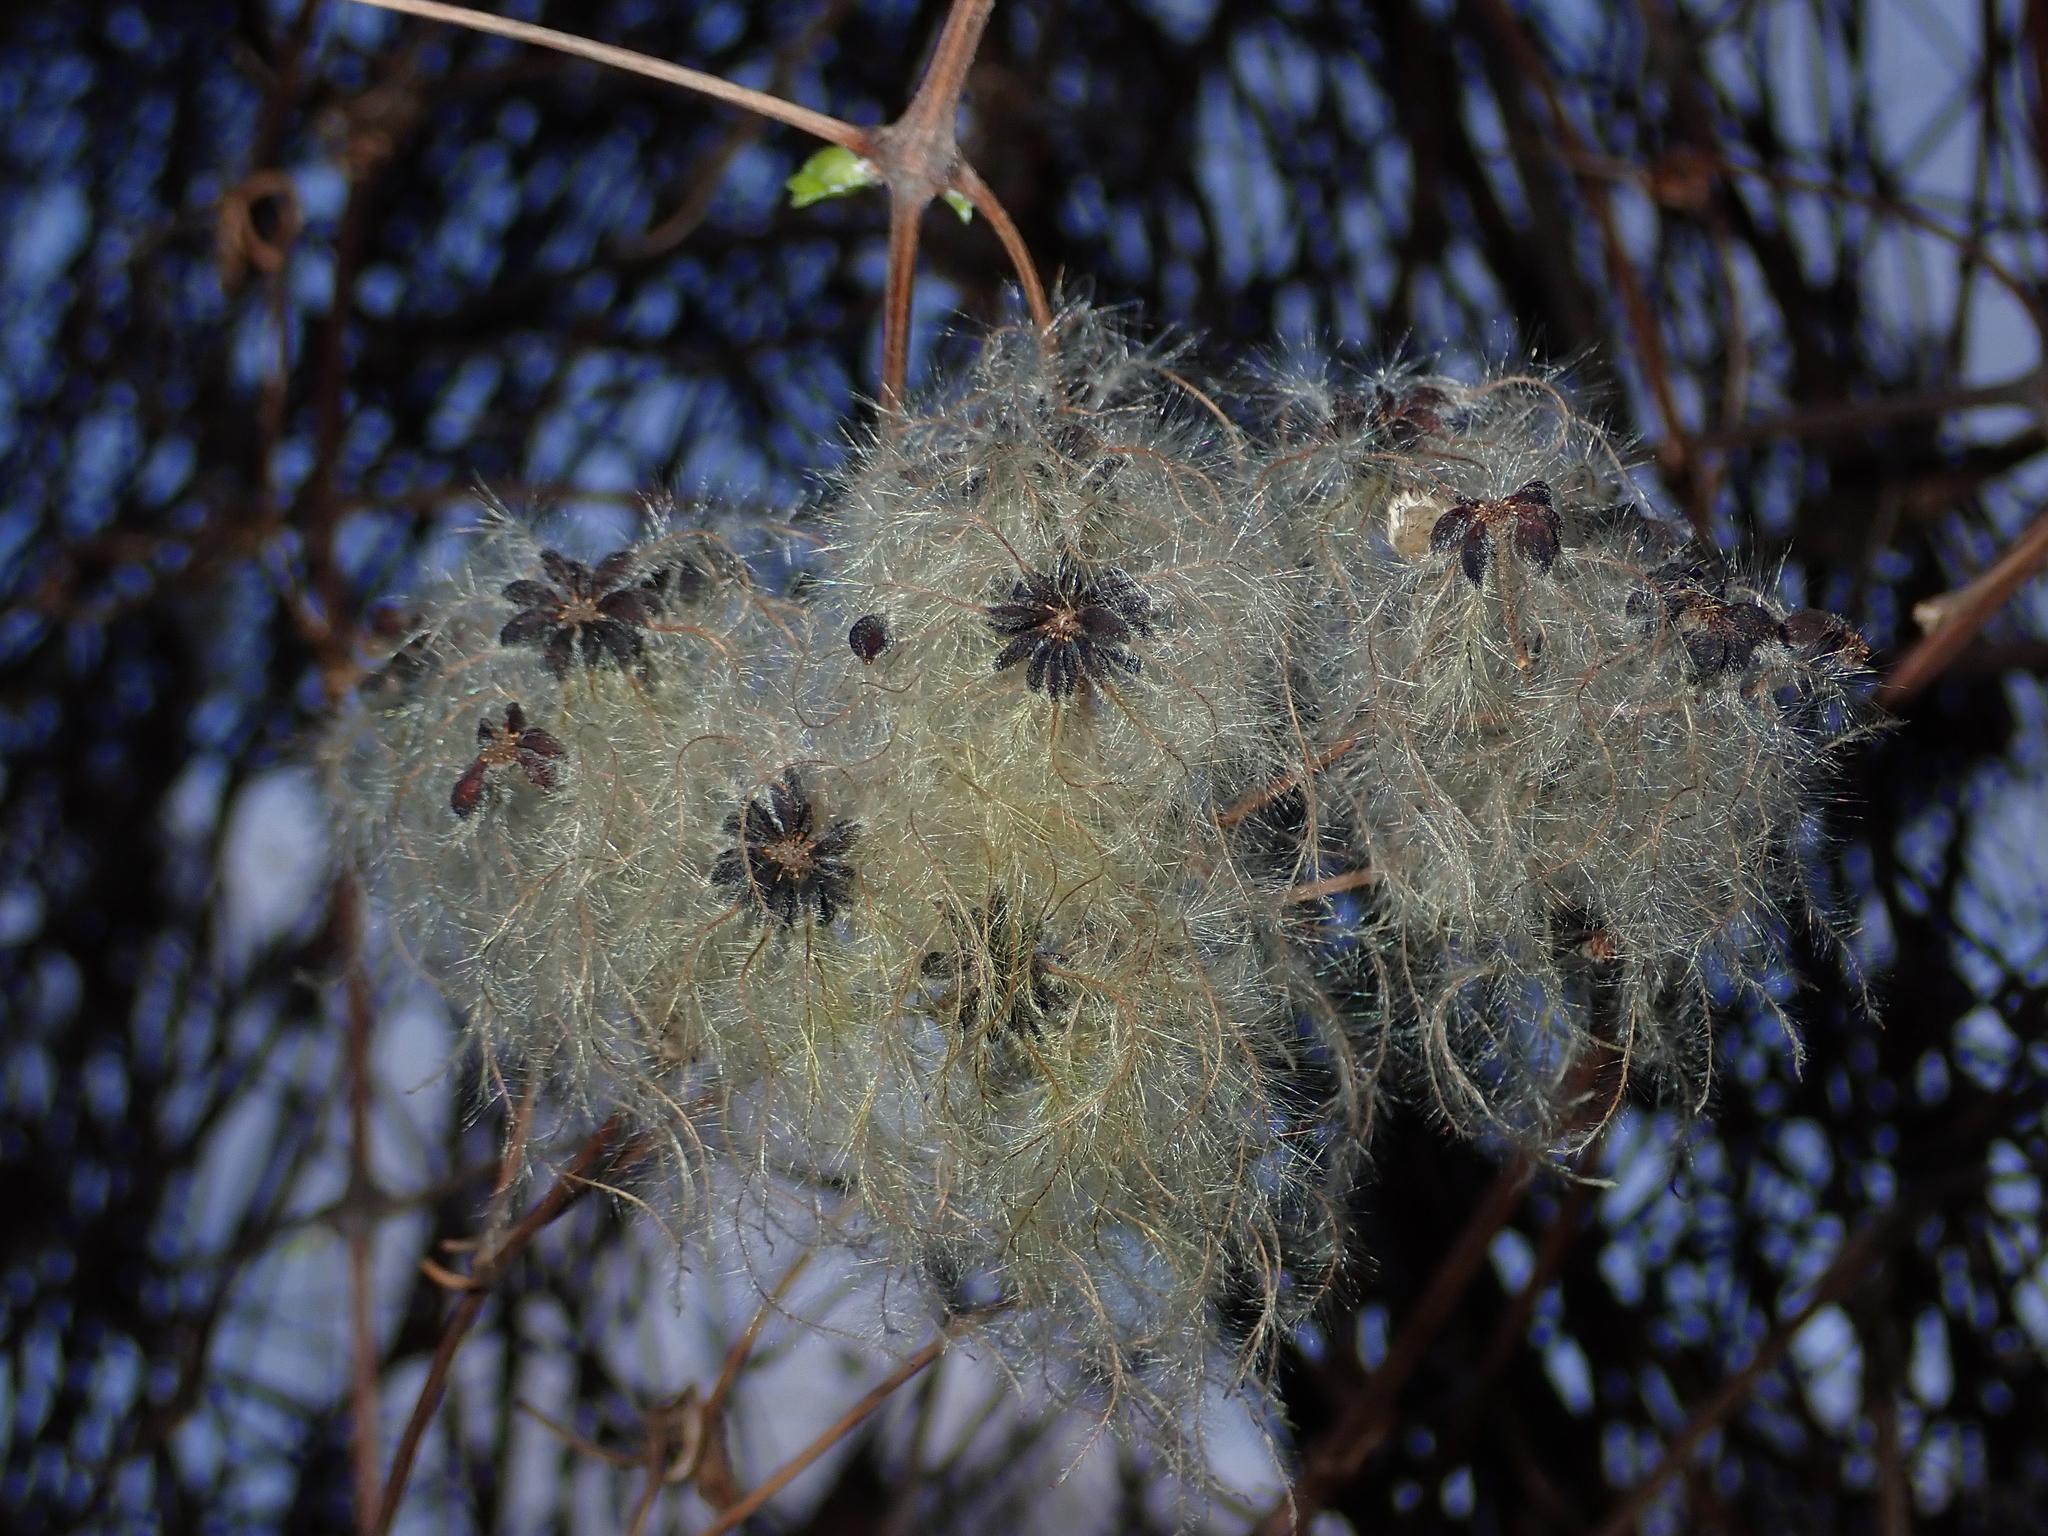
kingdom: Plantae
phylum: Tracheophyta
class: Magnoliopsida
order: Ranunculales
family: Ranunculaceae
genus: Clematis
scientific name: Clematis vitalba
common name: Evergreen clematis
